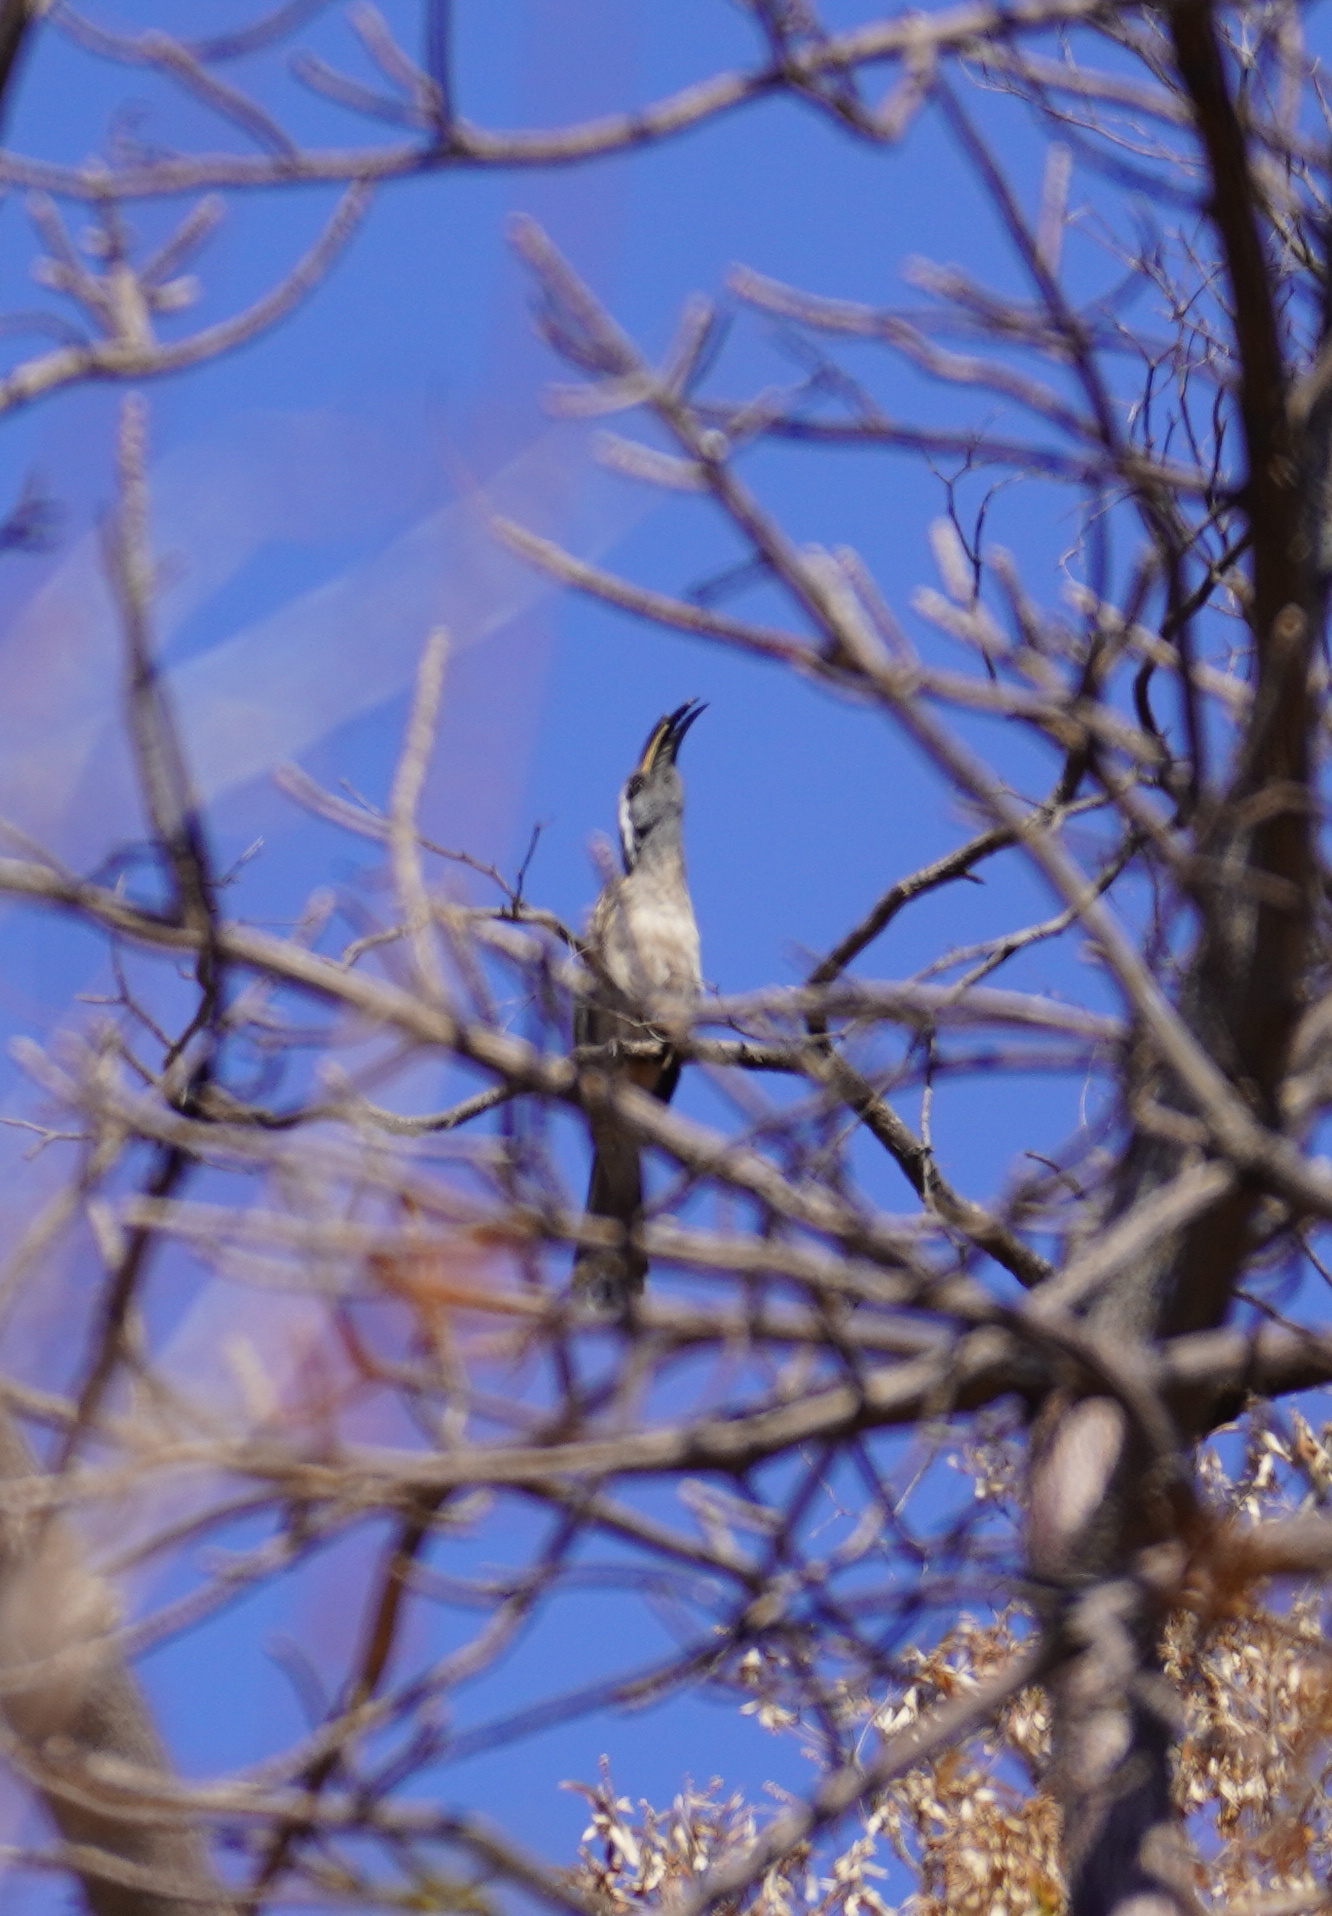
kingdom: Animalia
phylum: Chordata
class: Aves
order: Bucerotiformes
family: Bucerotidae
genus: Lophoceros
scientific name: Lophoceros nasutus
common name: African grey hornbill
